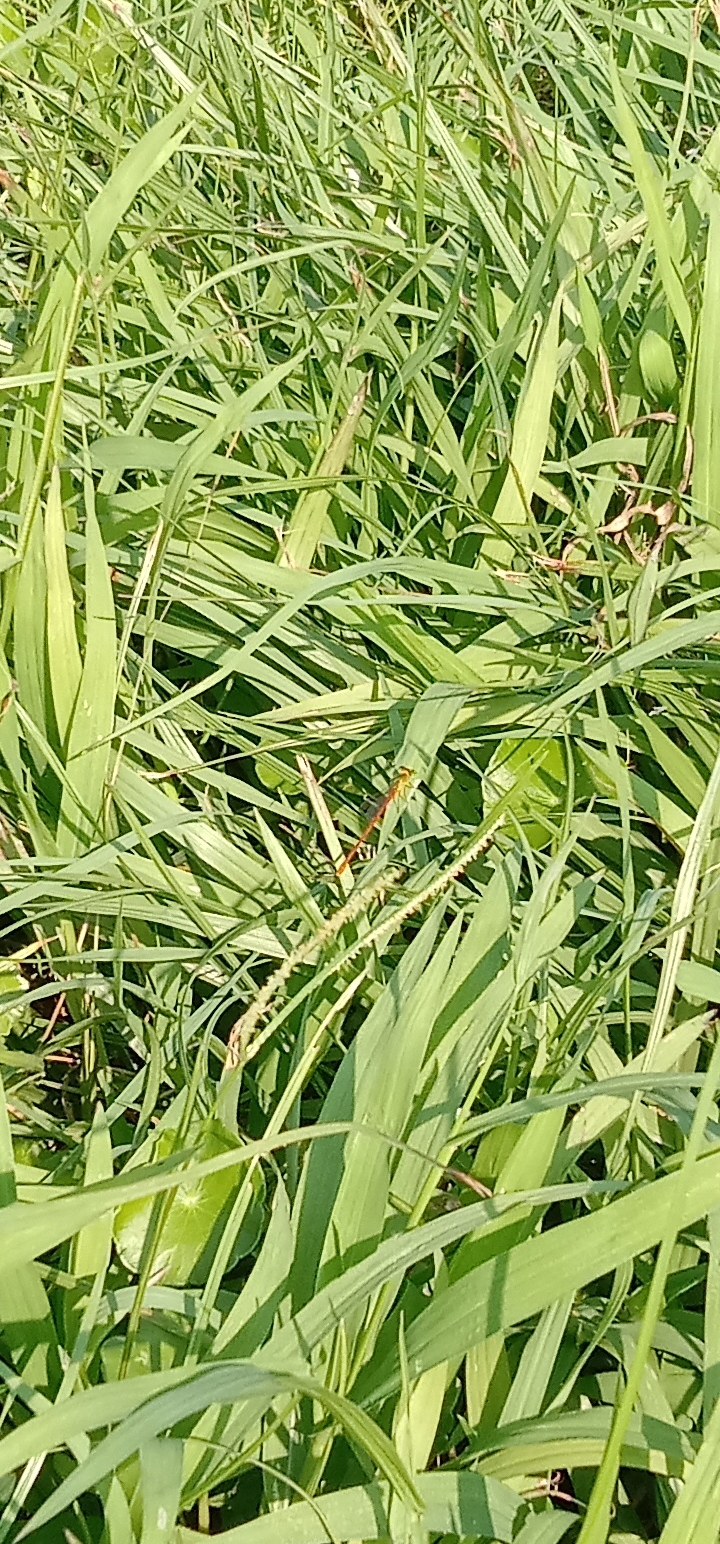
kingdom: Animalia
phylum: Arthropoda
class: Insecta
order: Odonata
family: Coenagrionidae
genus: Ceriagrion
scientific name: Ceriagrion auranticum
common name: Orange-tailed sprite
